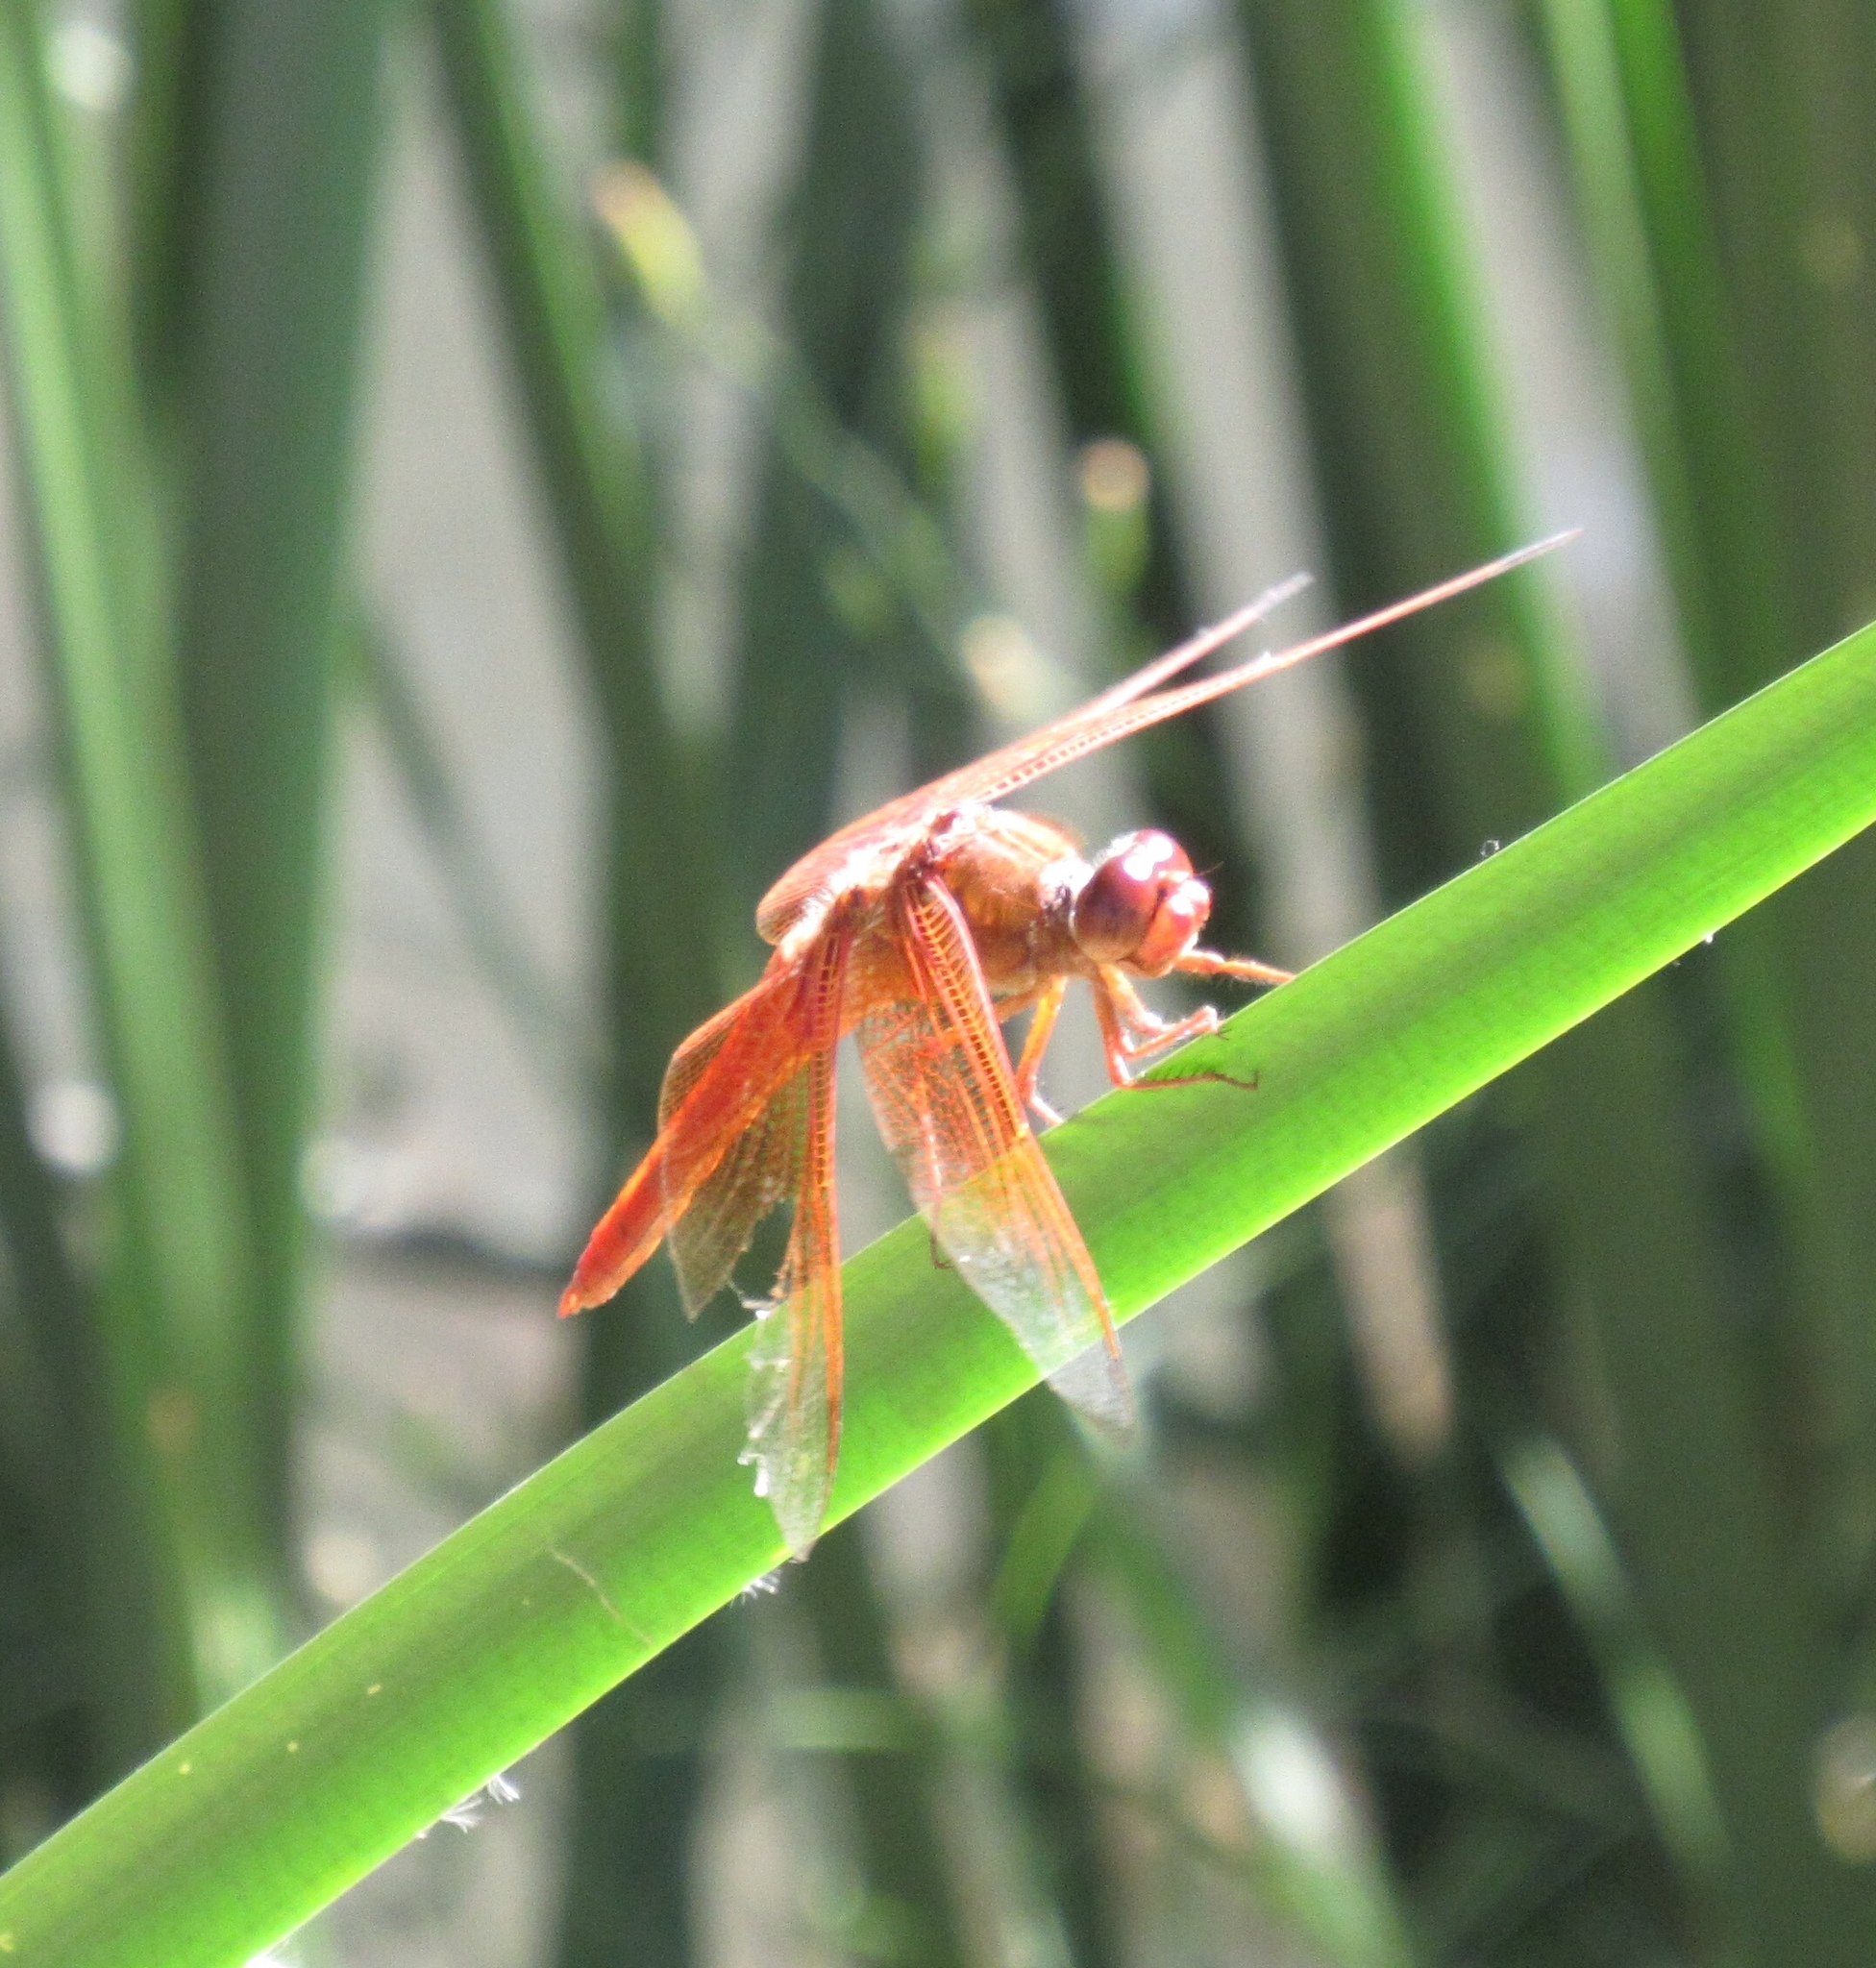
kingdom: Animalia
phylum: Arthropoda
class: Insecta
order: Odonata
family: Libellulidae
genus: Libellula
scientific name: Libellula saturata
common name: Flame skimmer
